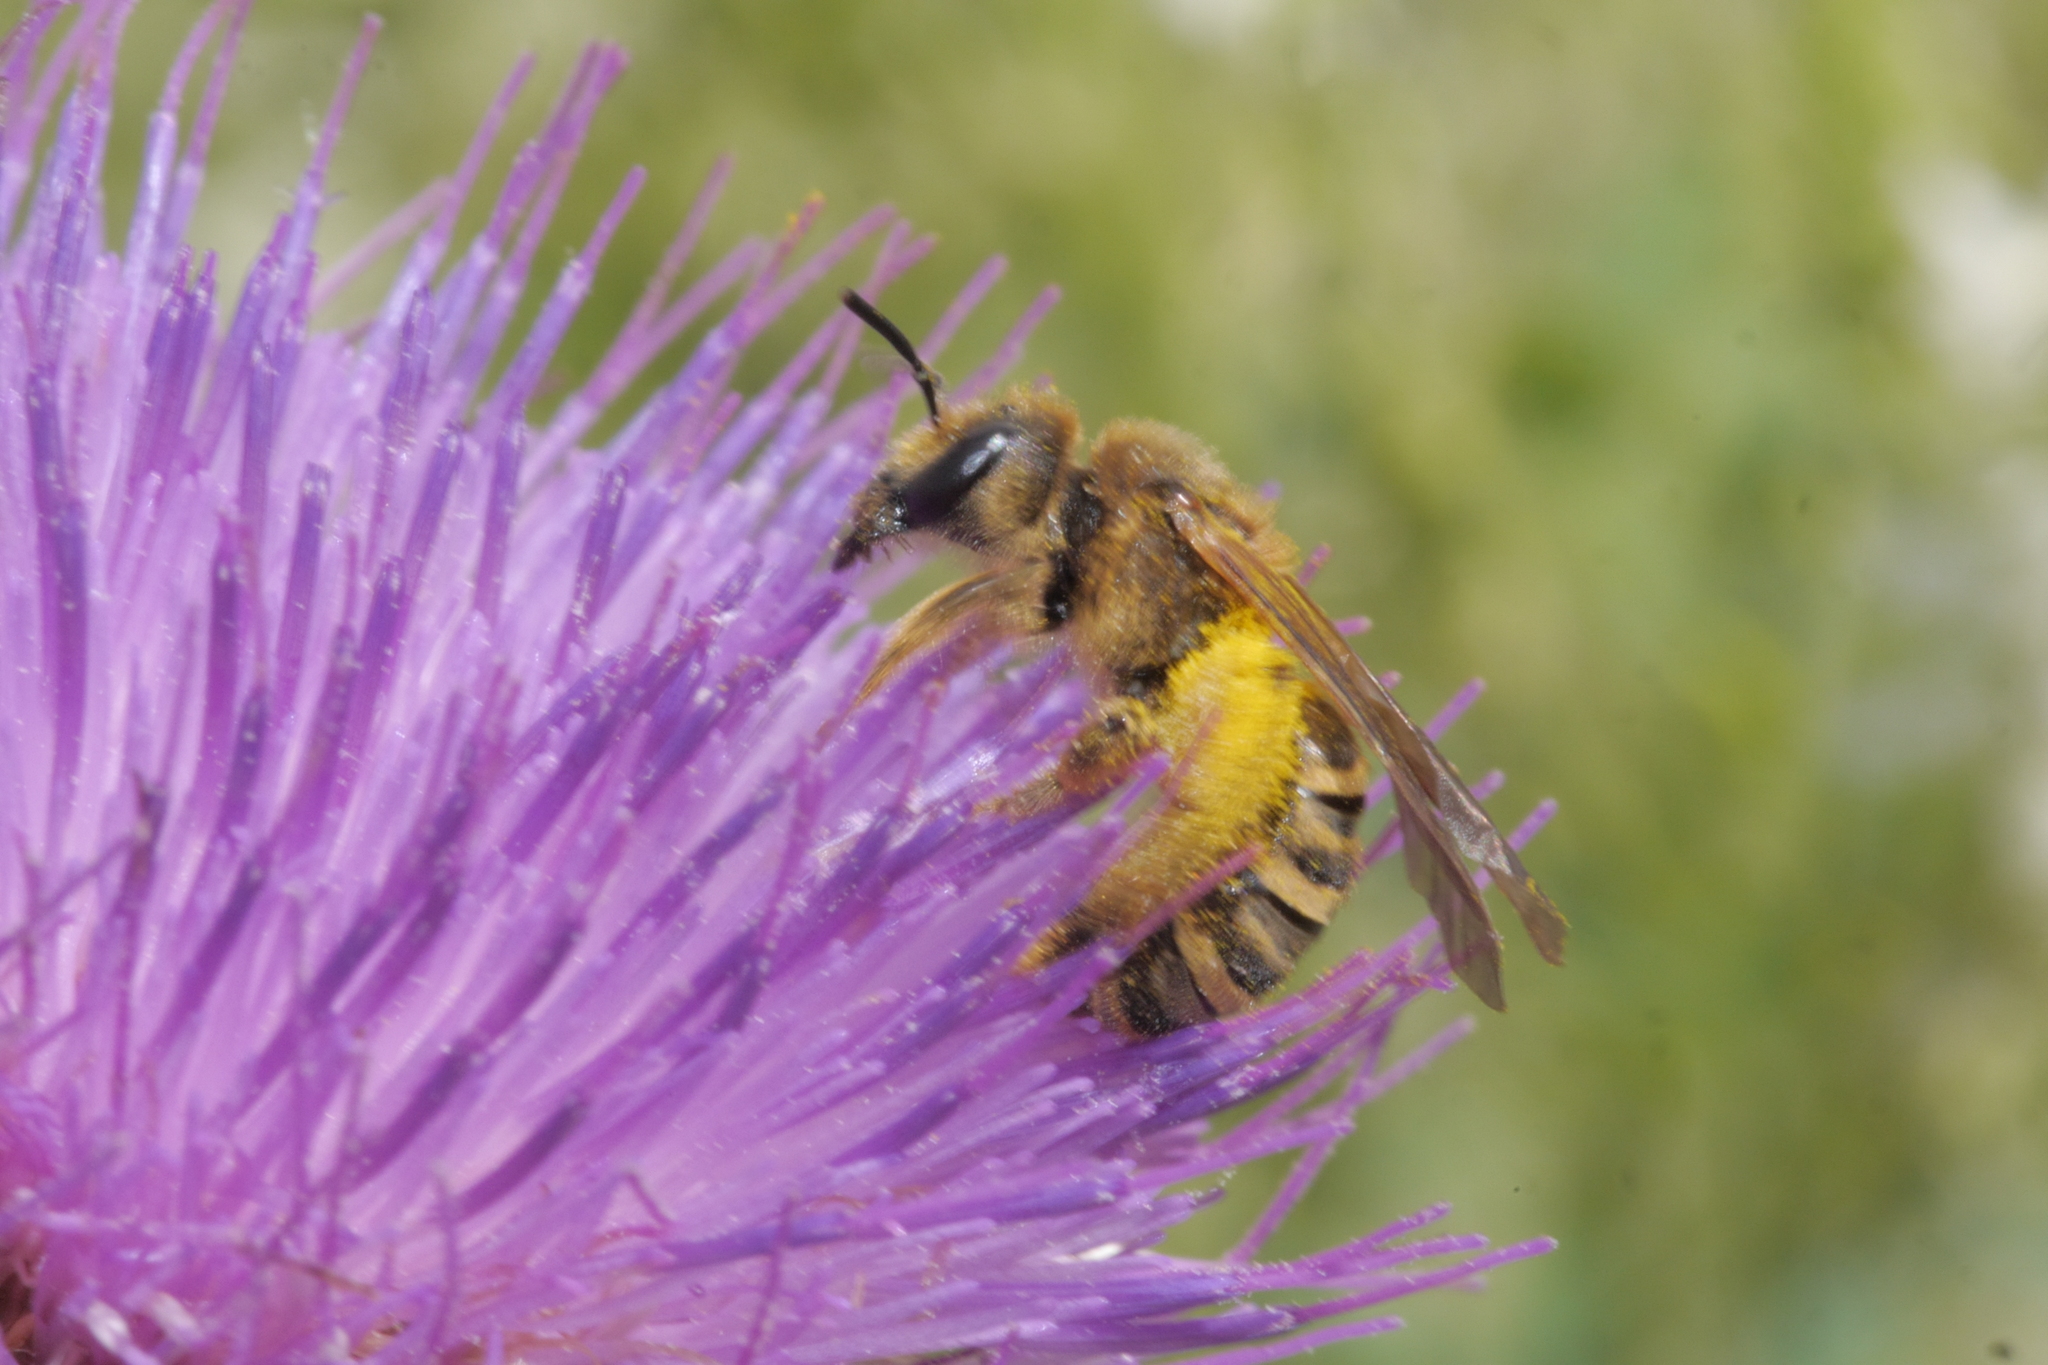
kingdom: Animalia
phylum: Arthropoda
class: Insecta
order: Hymenoptera
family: Halictidae
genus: Halictus
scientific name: Halictus scabiosae
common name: Great banded furrow bee
